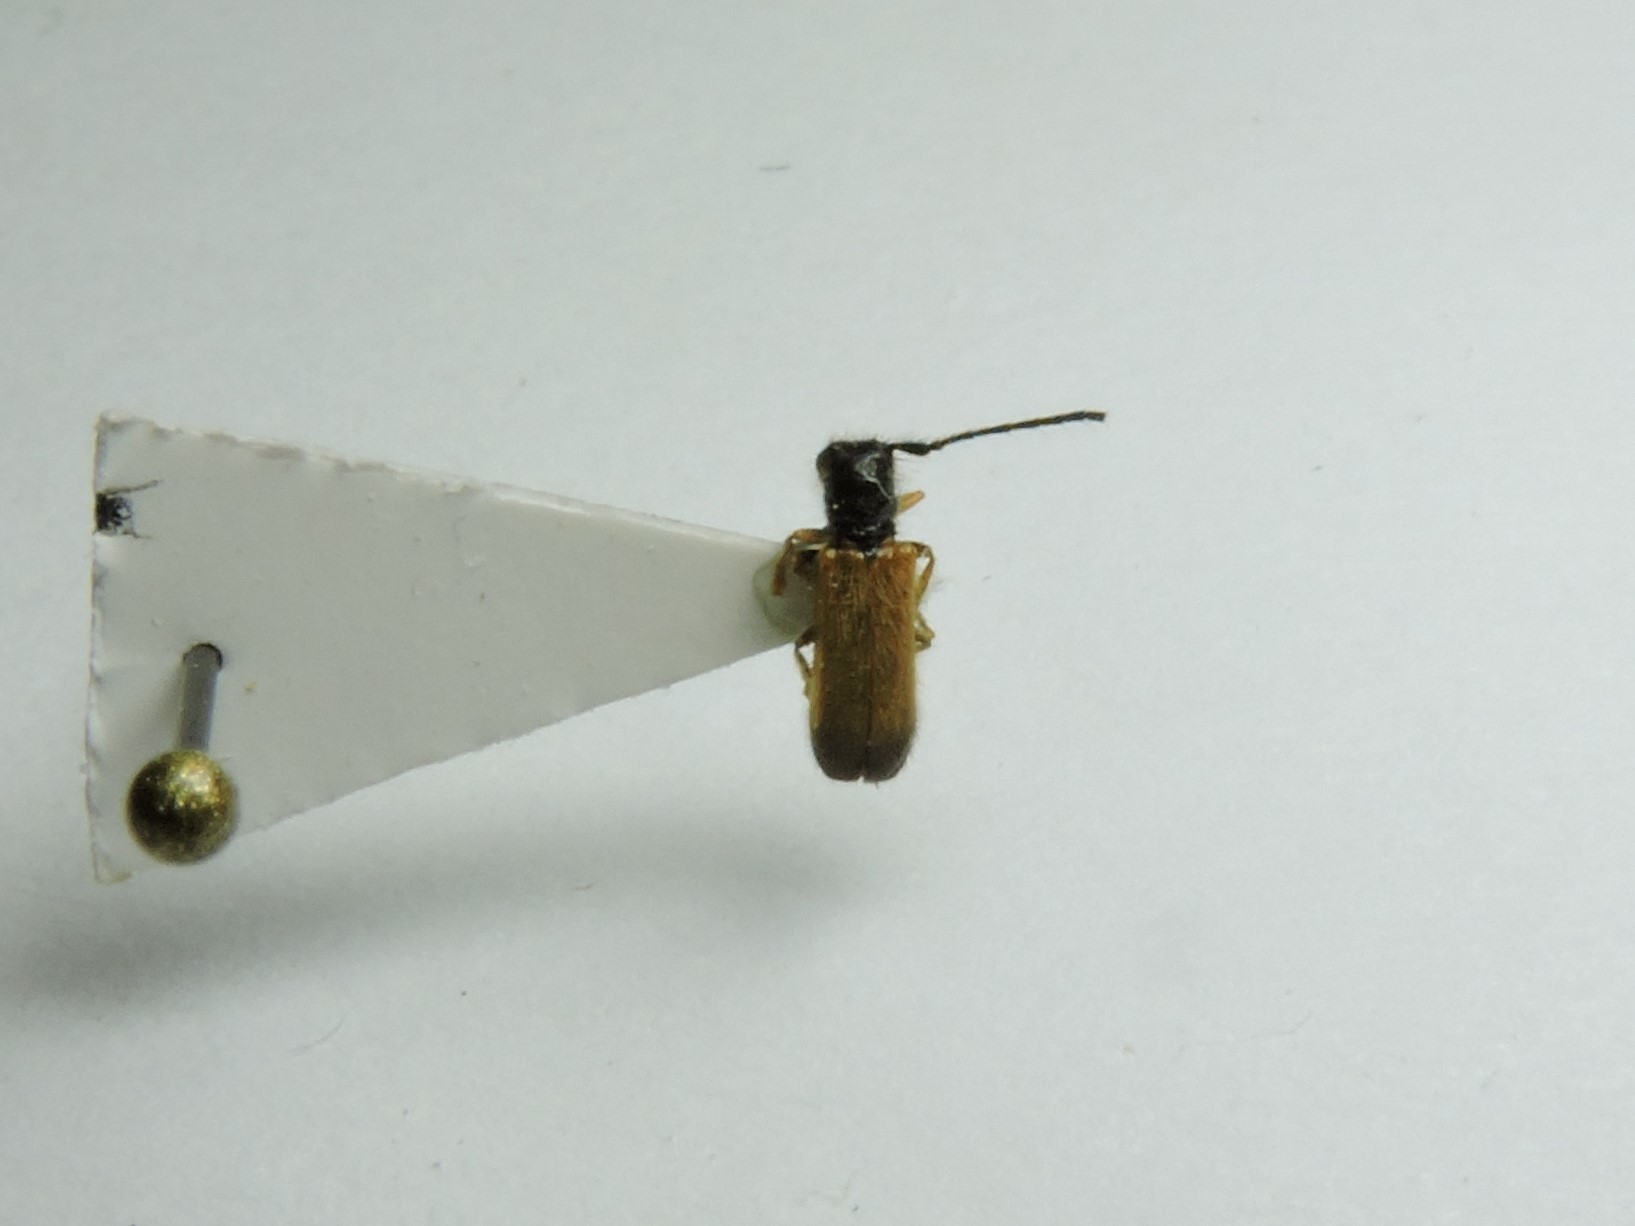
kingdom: Animalia
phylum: Arthropoda
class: Insecta
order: Coleoptera
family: Cerambycidae
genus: Tetrops
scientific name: Tetrops praeustus
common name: Plum beetle
